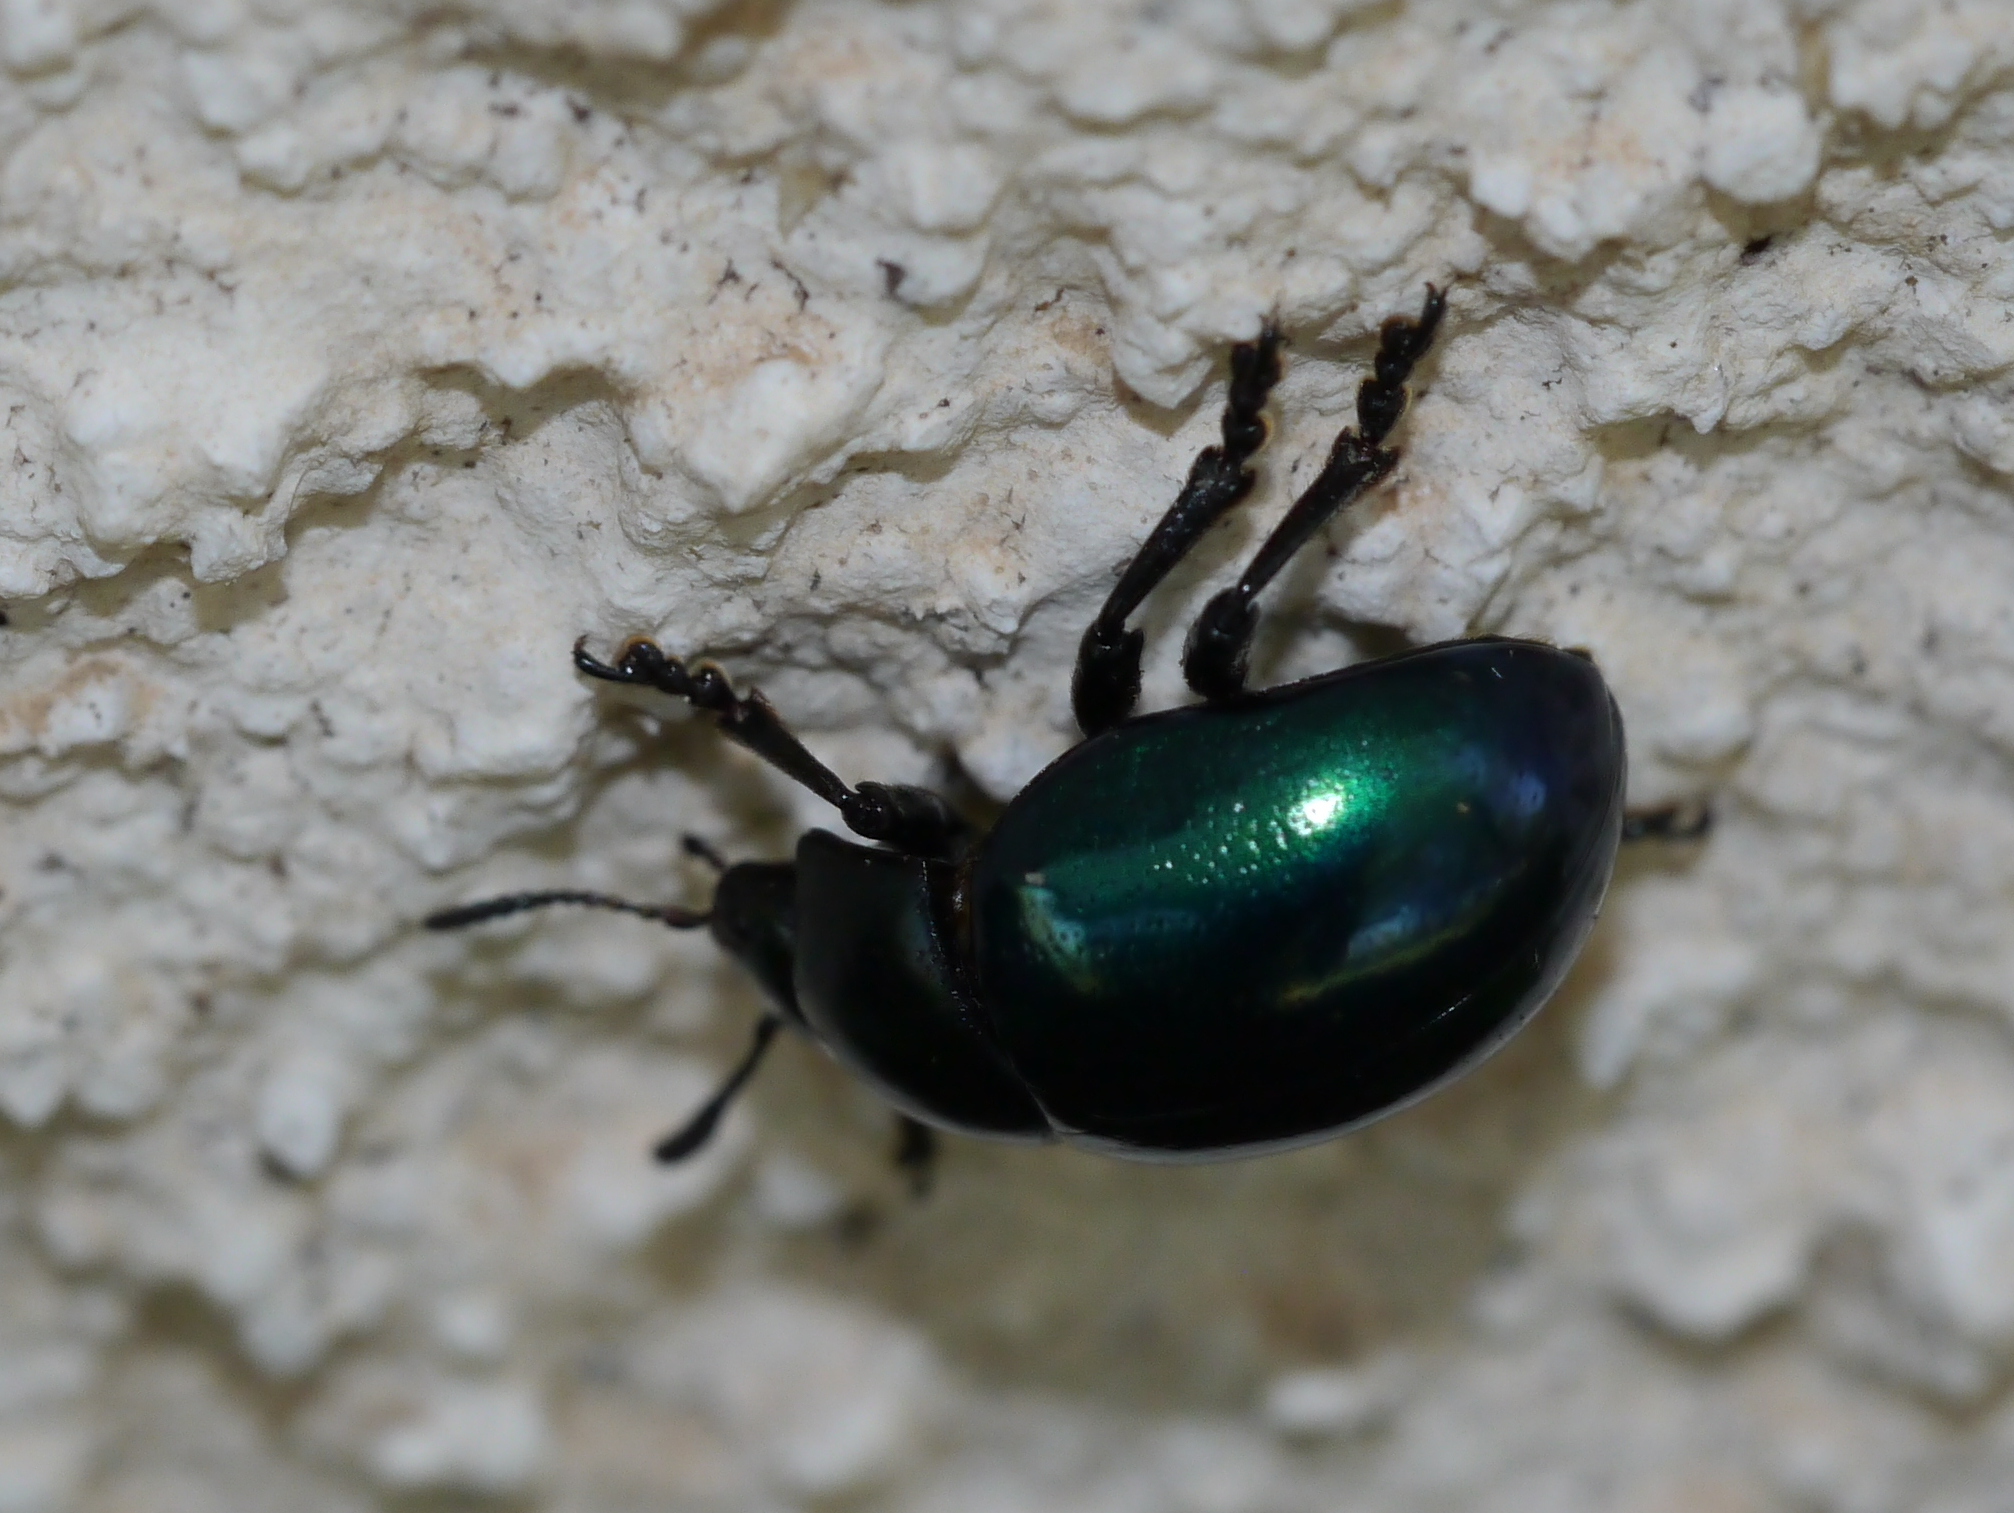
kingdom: Animalia
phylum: Arthropoda
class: Insecta
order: Coleoptera
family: Chrysomelidae
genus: Leptinotarsa
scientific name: Leptinotarsa haldemani
